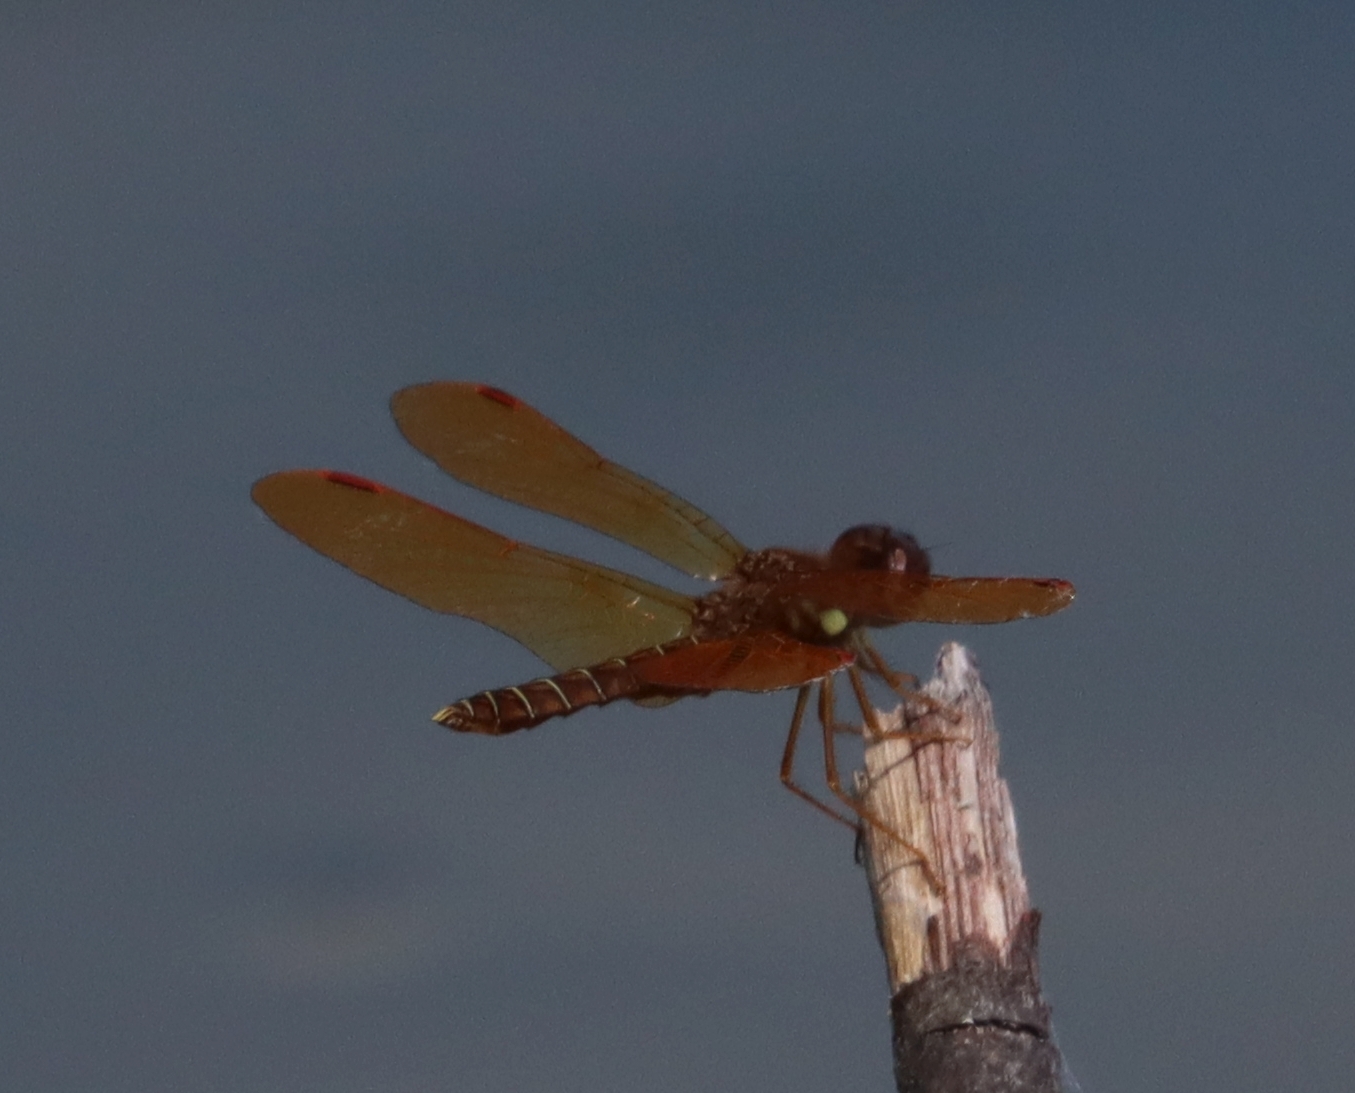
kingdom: Animalia
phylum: Arthropoda
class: Insecta
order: Odonata
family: Libellulidae
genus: Perithemis
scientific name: Perithemis tenera
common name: Eastern amberwing
